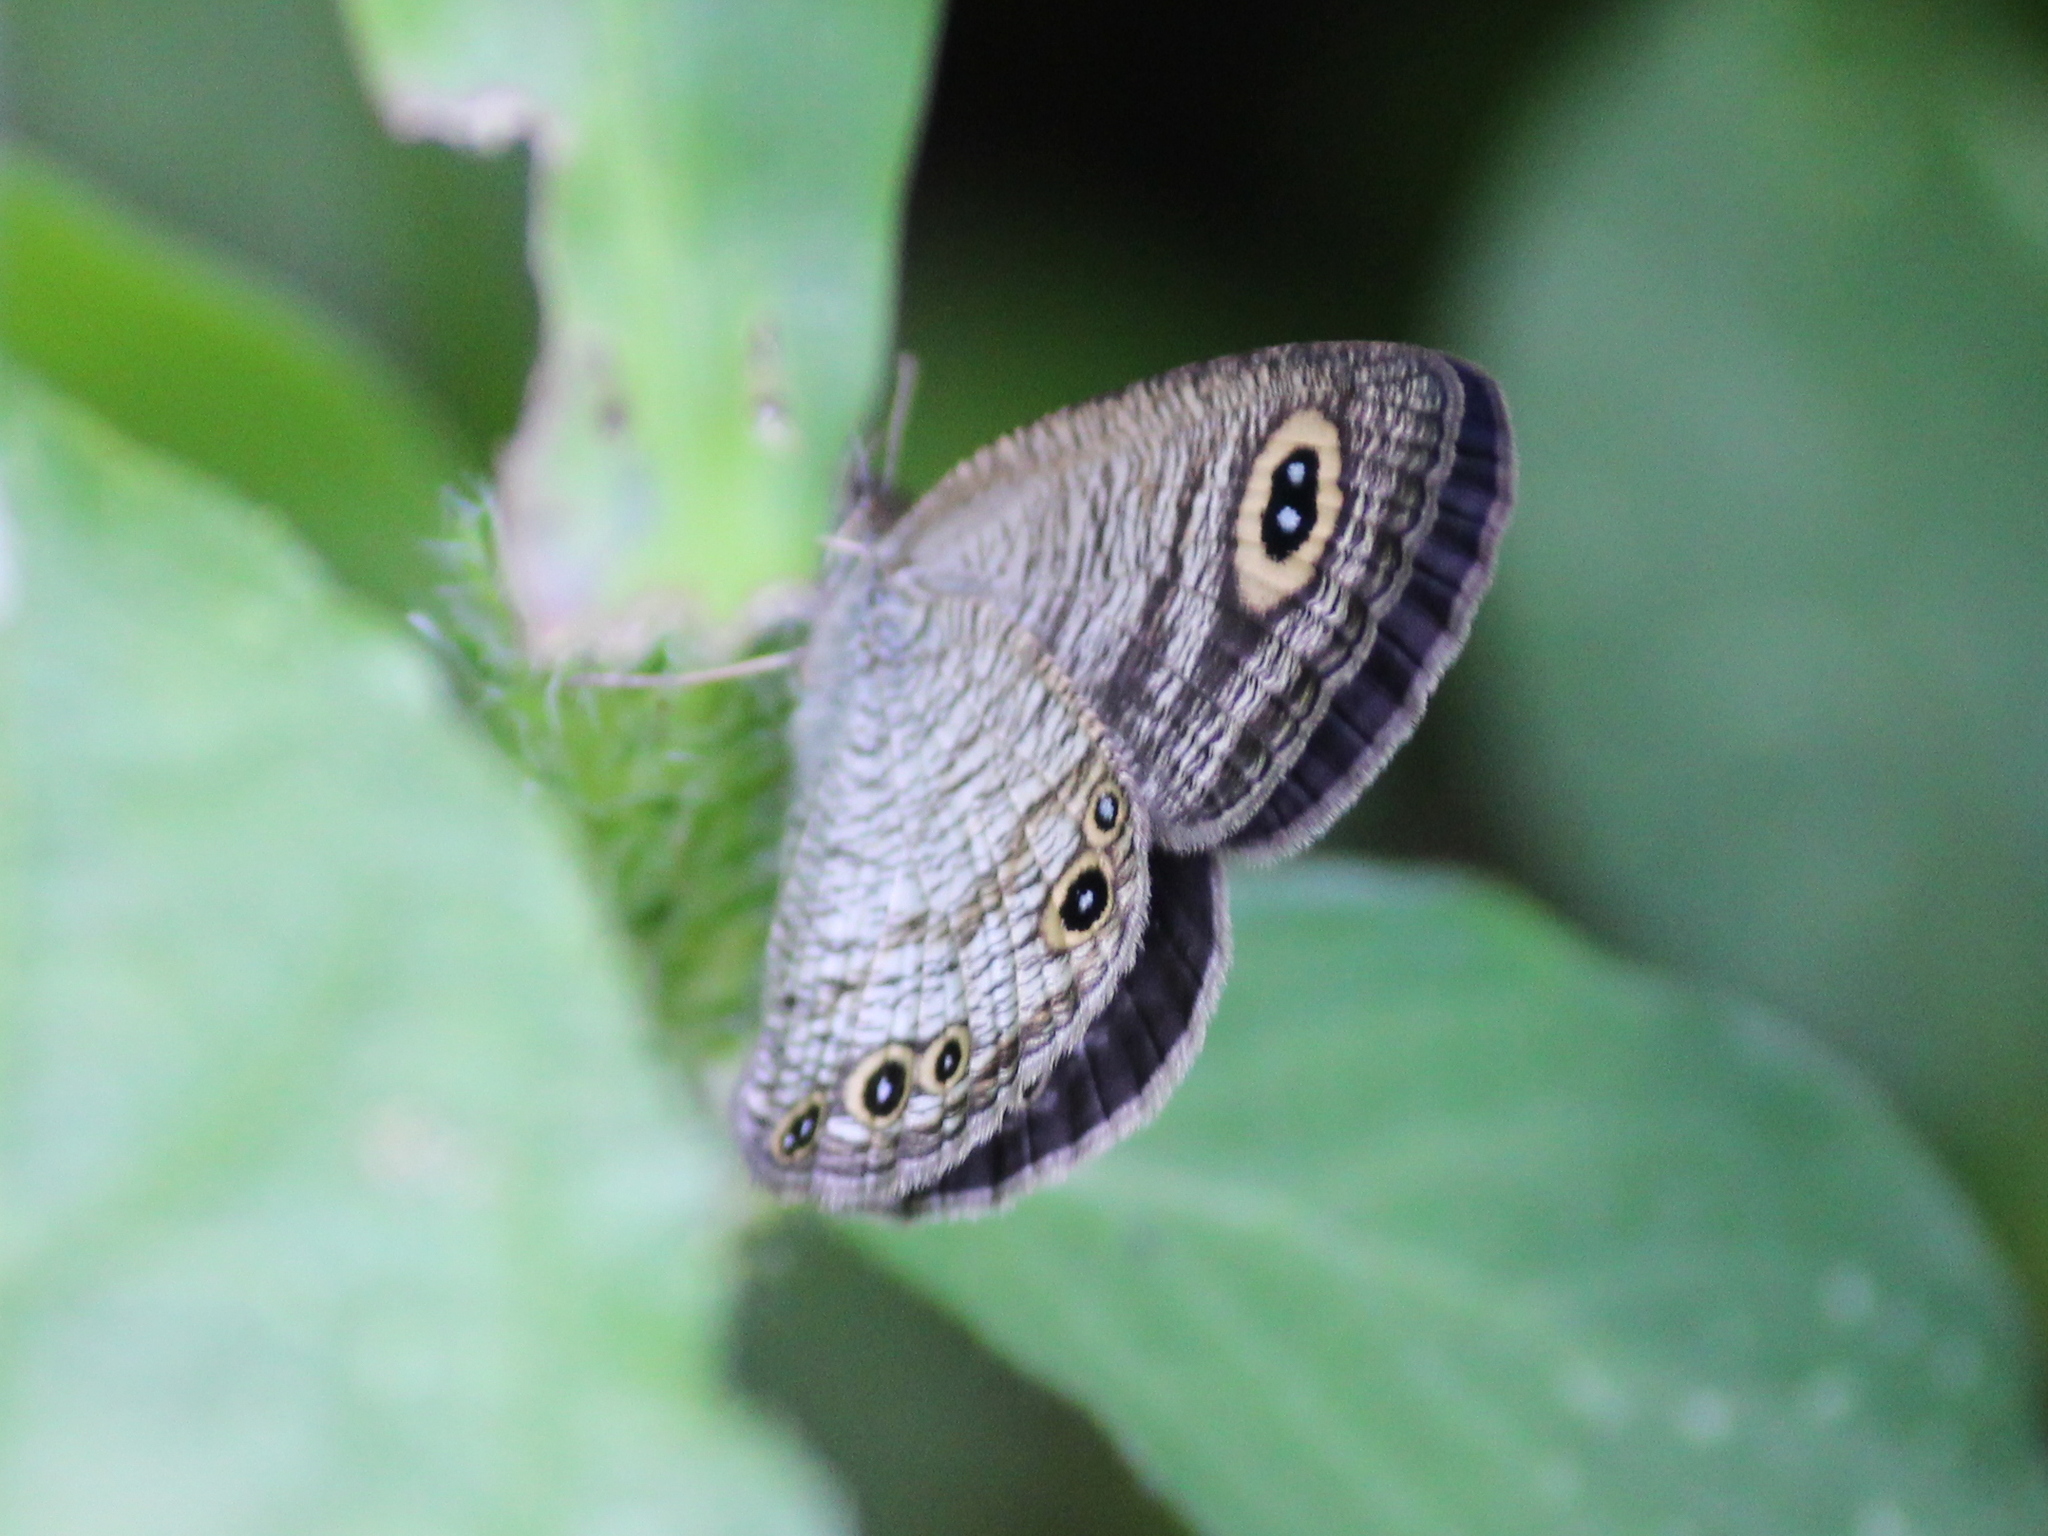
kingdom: Animalia
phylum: Arthropoda
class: Insecta
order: Lepidoptera
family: Nymphalidae
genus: Ypthima
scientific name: Ypthima baldus
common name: Common five-ring
